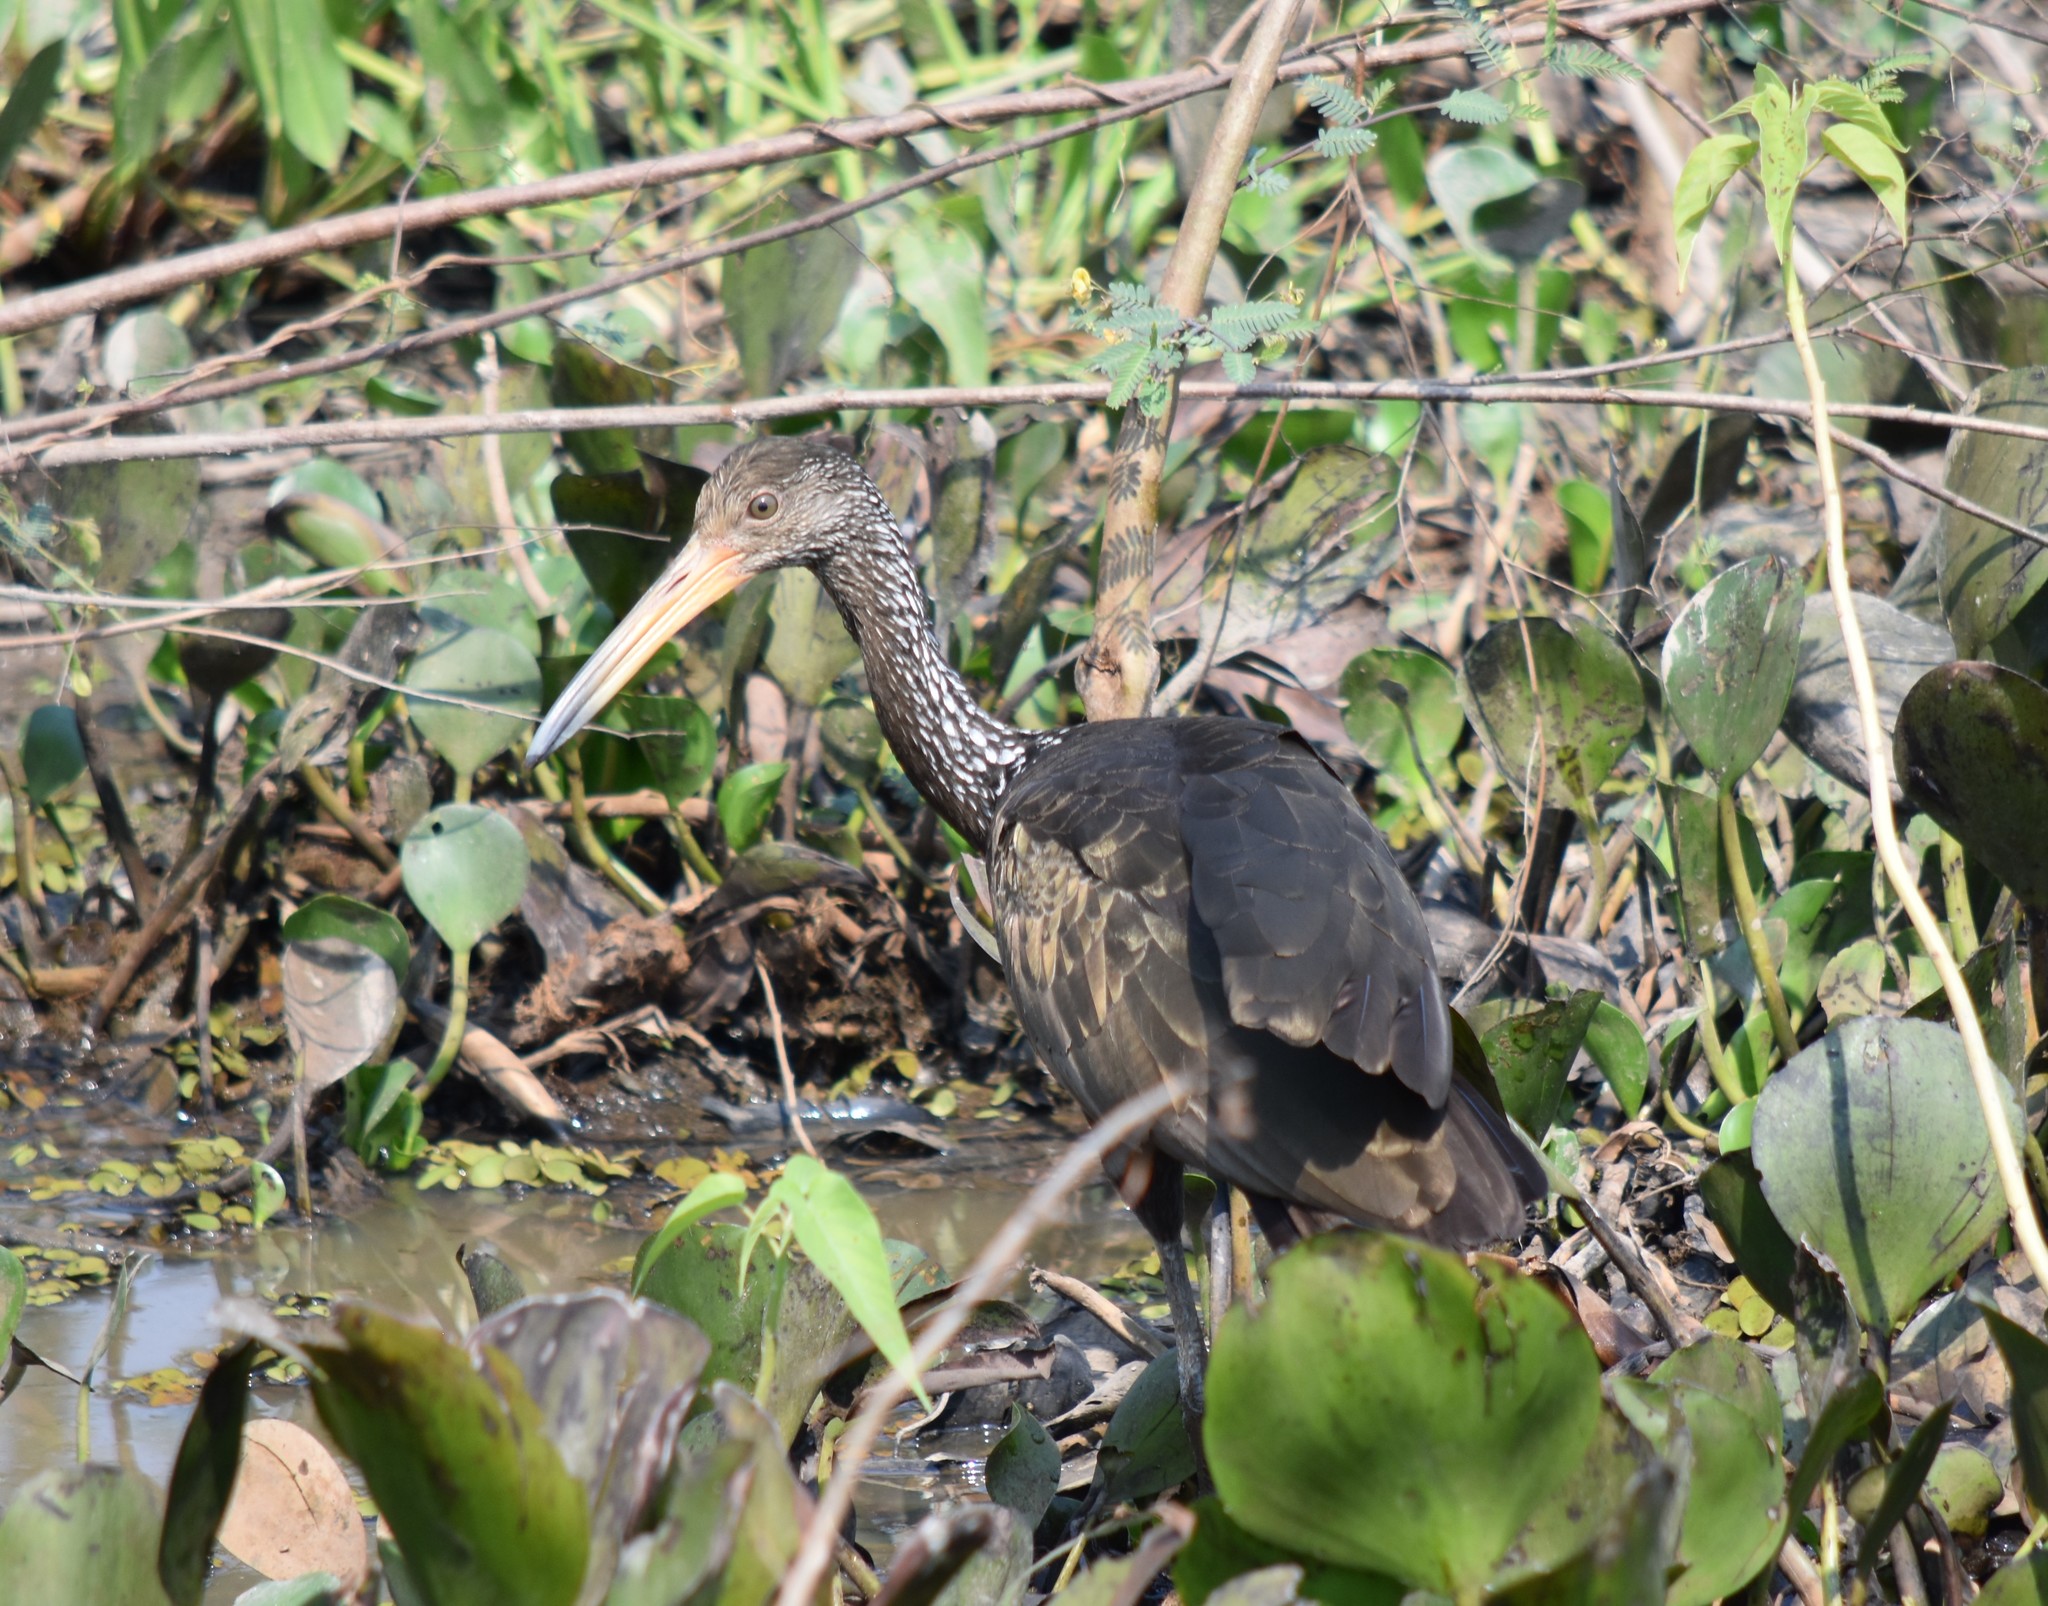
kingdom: Animalia
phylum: Chordata
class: Aves
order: Gruiformes
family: Aramidae
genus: Aramus
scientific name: Aramus guarauna
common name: Limpkin
